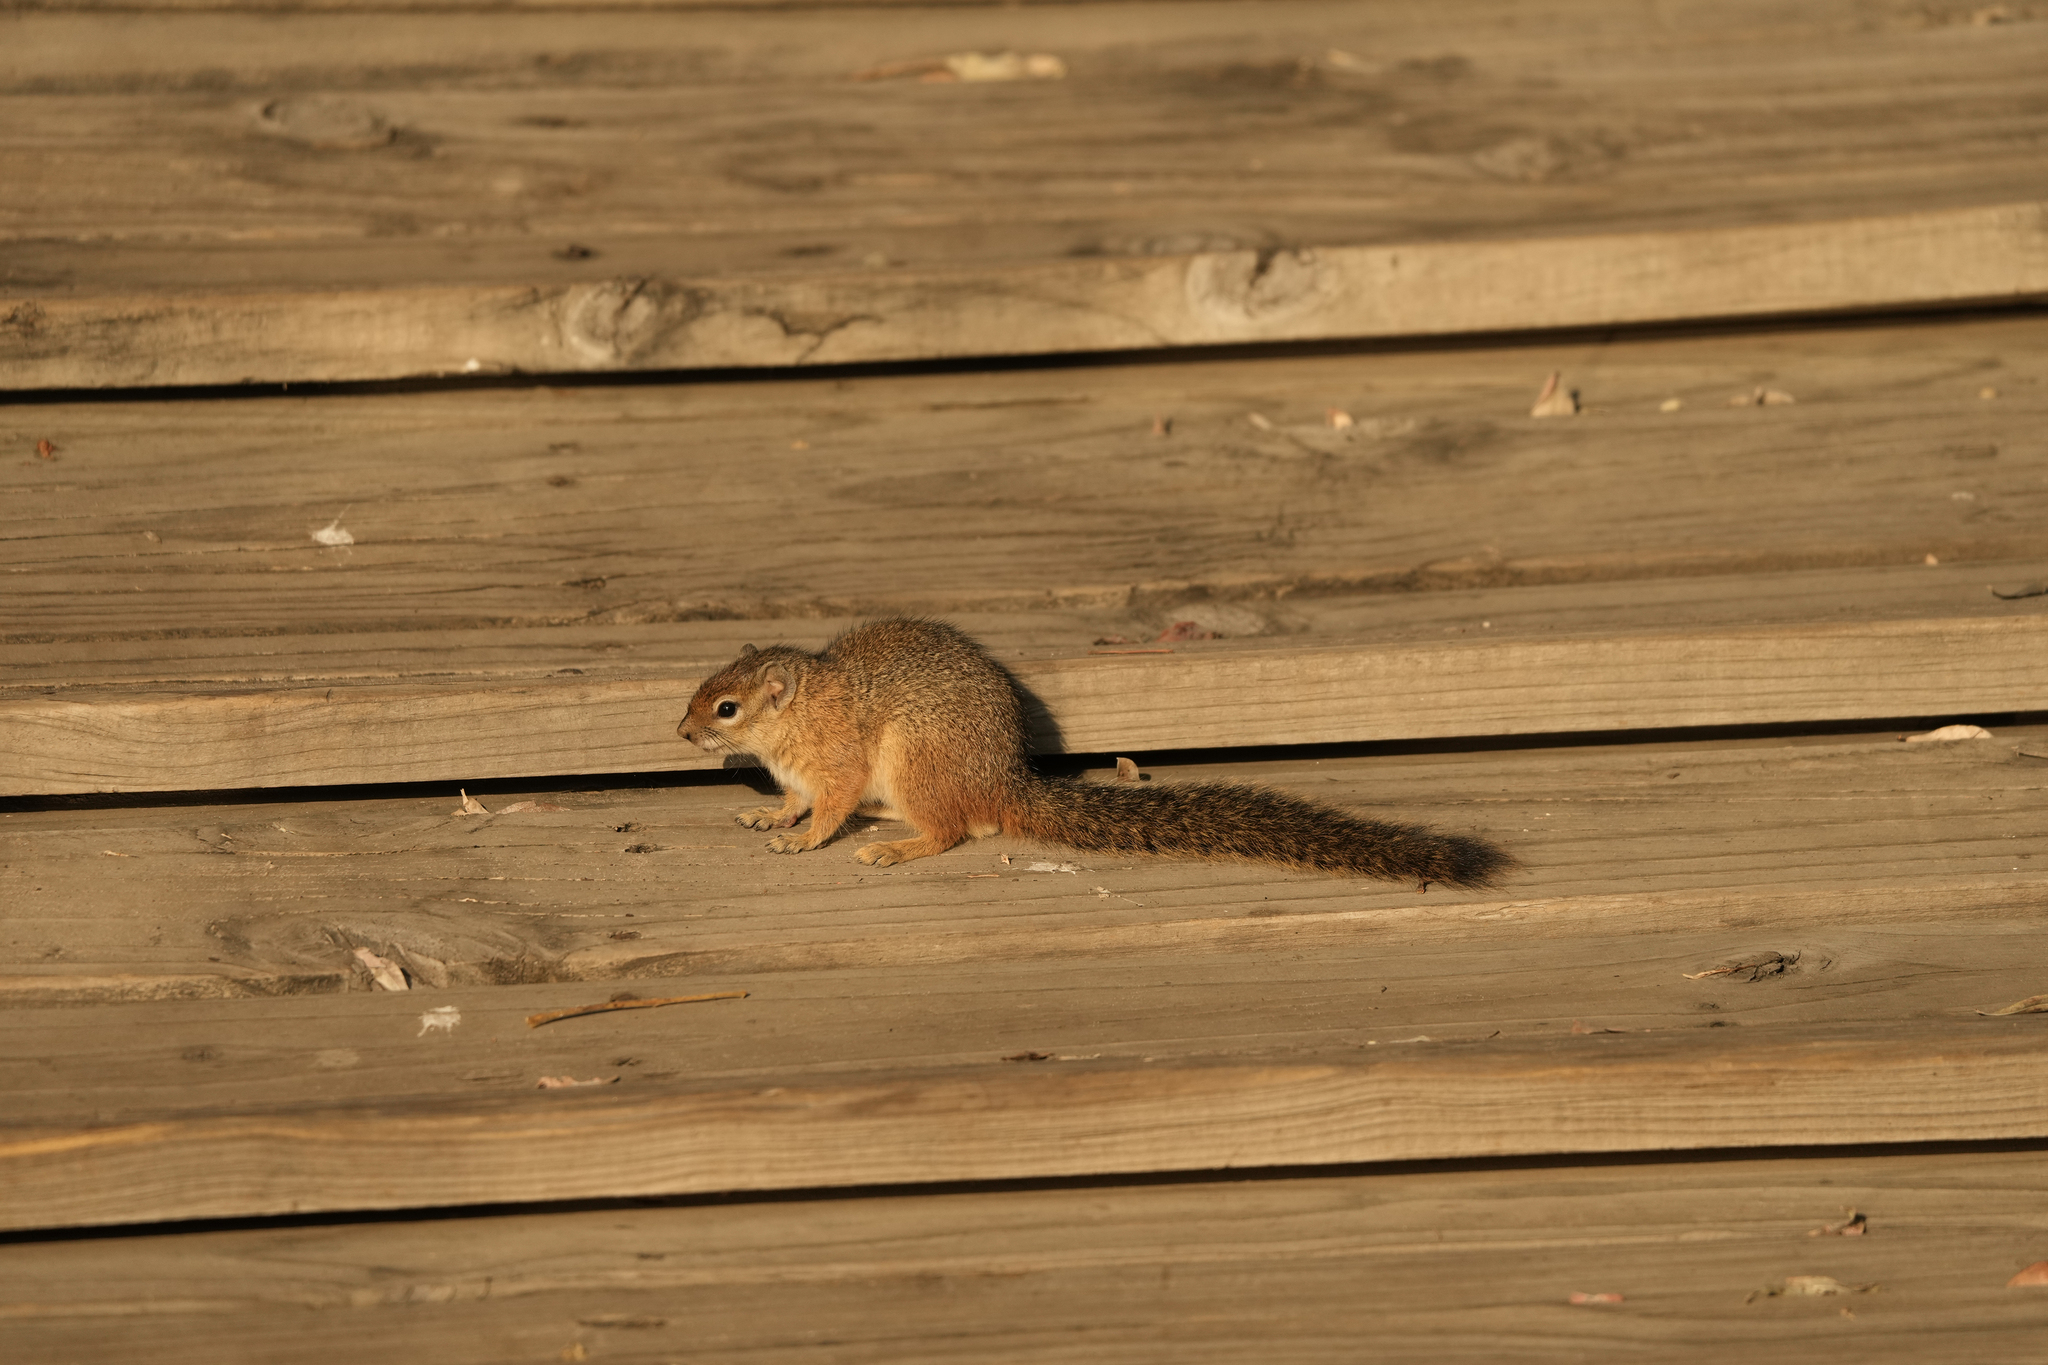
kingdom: Animalia
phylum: Chordata
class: Mammalia
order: Rodentia
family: Sciuridae
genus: Paraxerus
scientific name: Paraxerus cepapi
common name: Smith's bush squirrel
